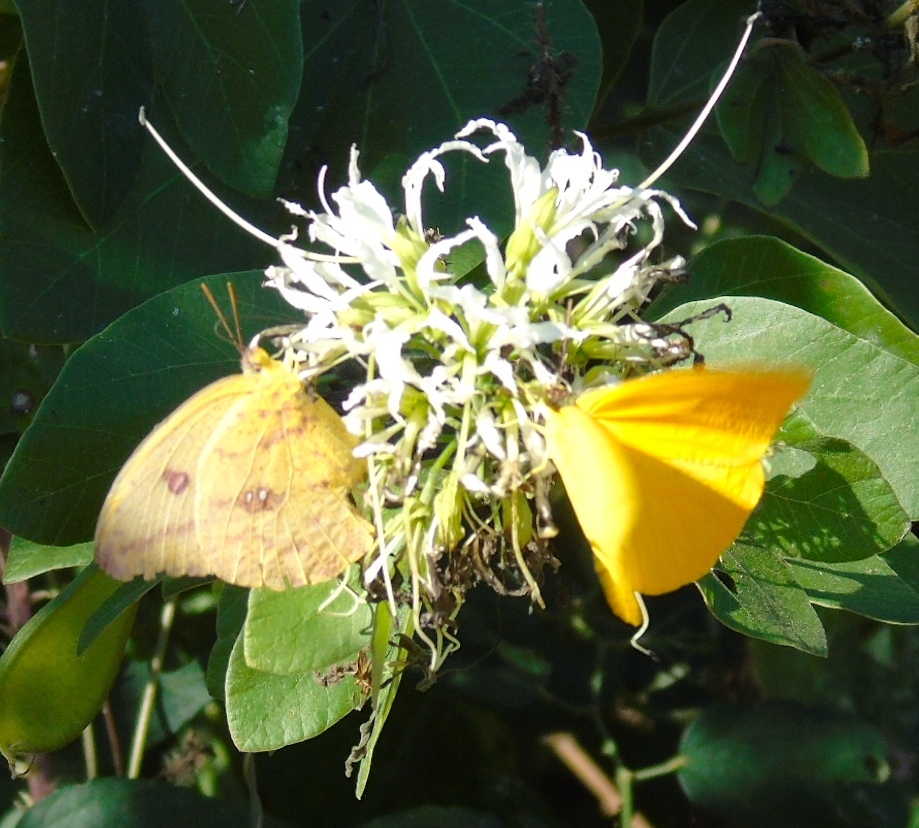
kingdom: Animalia
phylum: Arthropoda
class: Insecta
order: Lepidoptera
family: Pieridae
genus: Phoebis
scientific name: Phoebis sennae
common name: Cloudless sulphur
